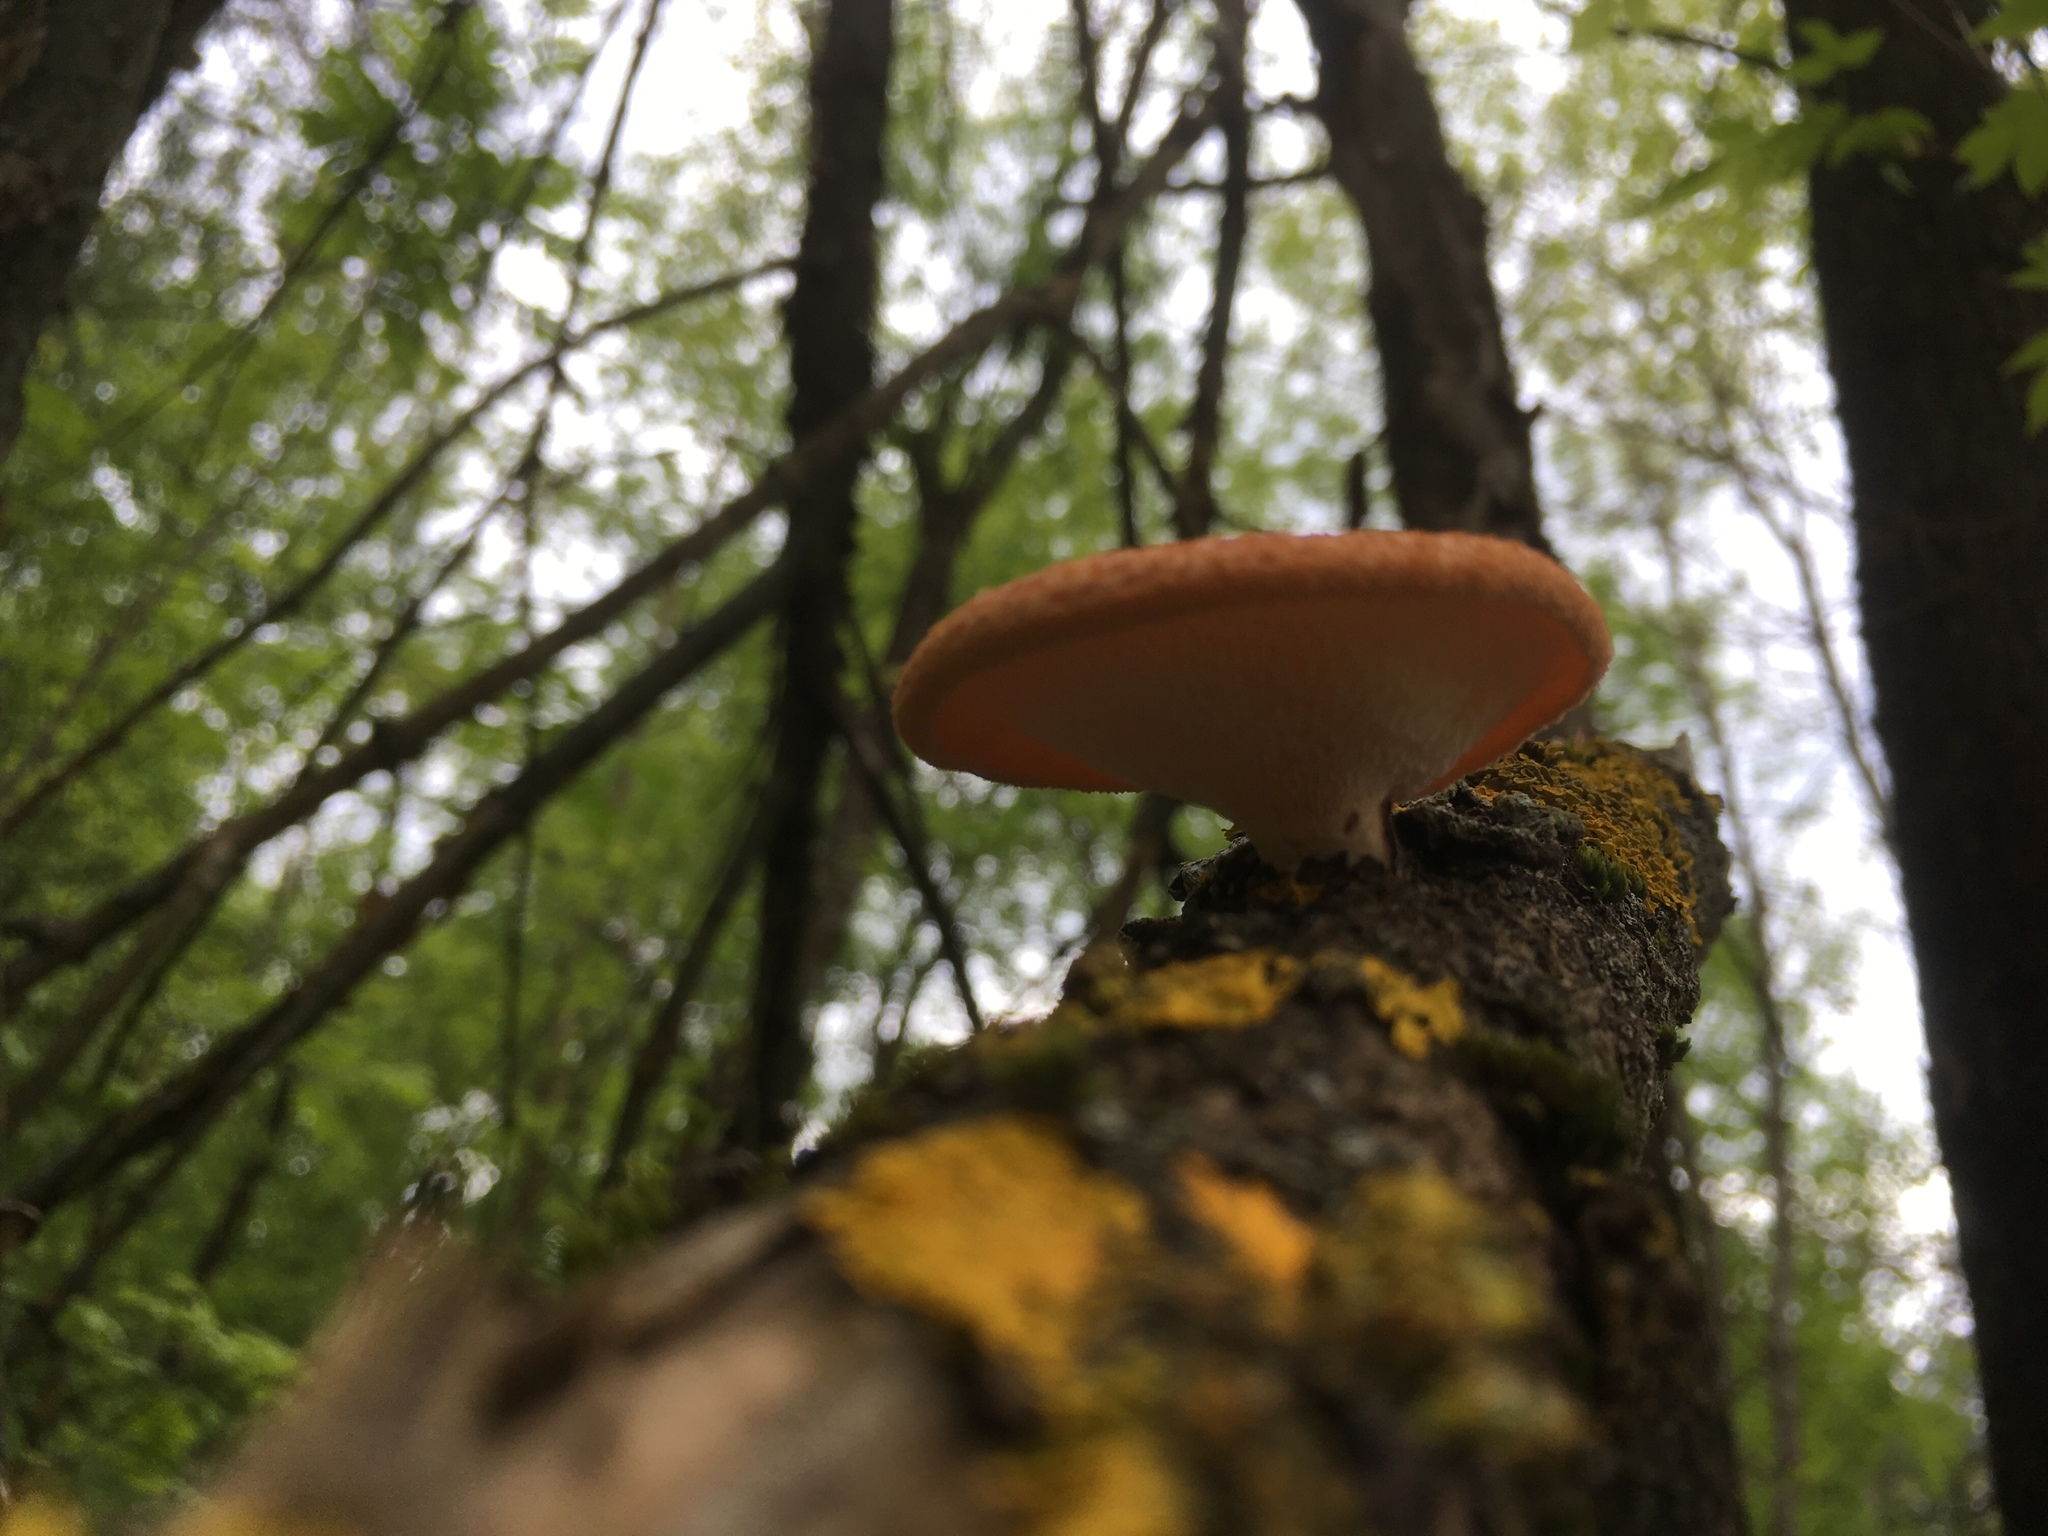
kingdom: Fungi
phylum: Basidiomycota
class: Agaricomycetes
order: Polyporales
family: Polyporaceae
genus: Neofavolus
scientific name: Neofavolus alveolaris
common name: Hexagonal-pored polypore
